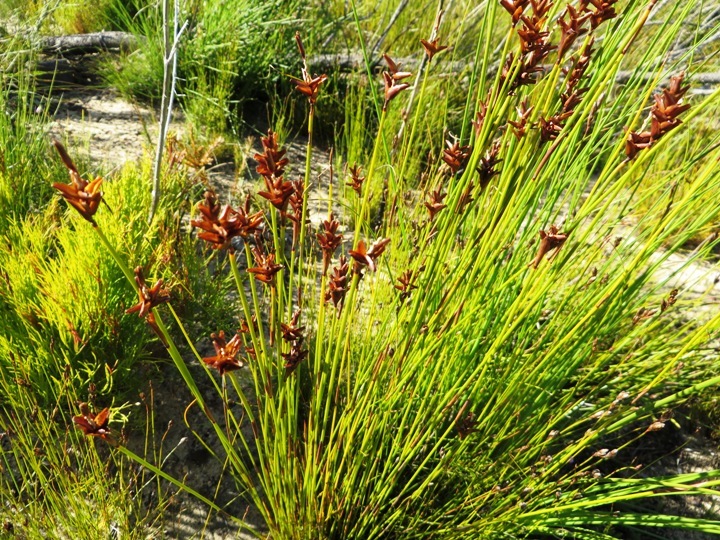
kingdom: Plantae
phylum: Tracheophyta
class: Liliopsida
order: Poales
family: Restionaceae
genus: Staberoha
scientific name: Staberoha cernua
